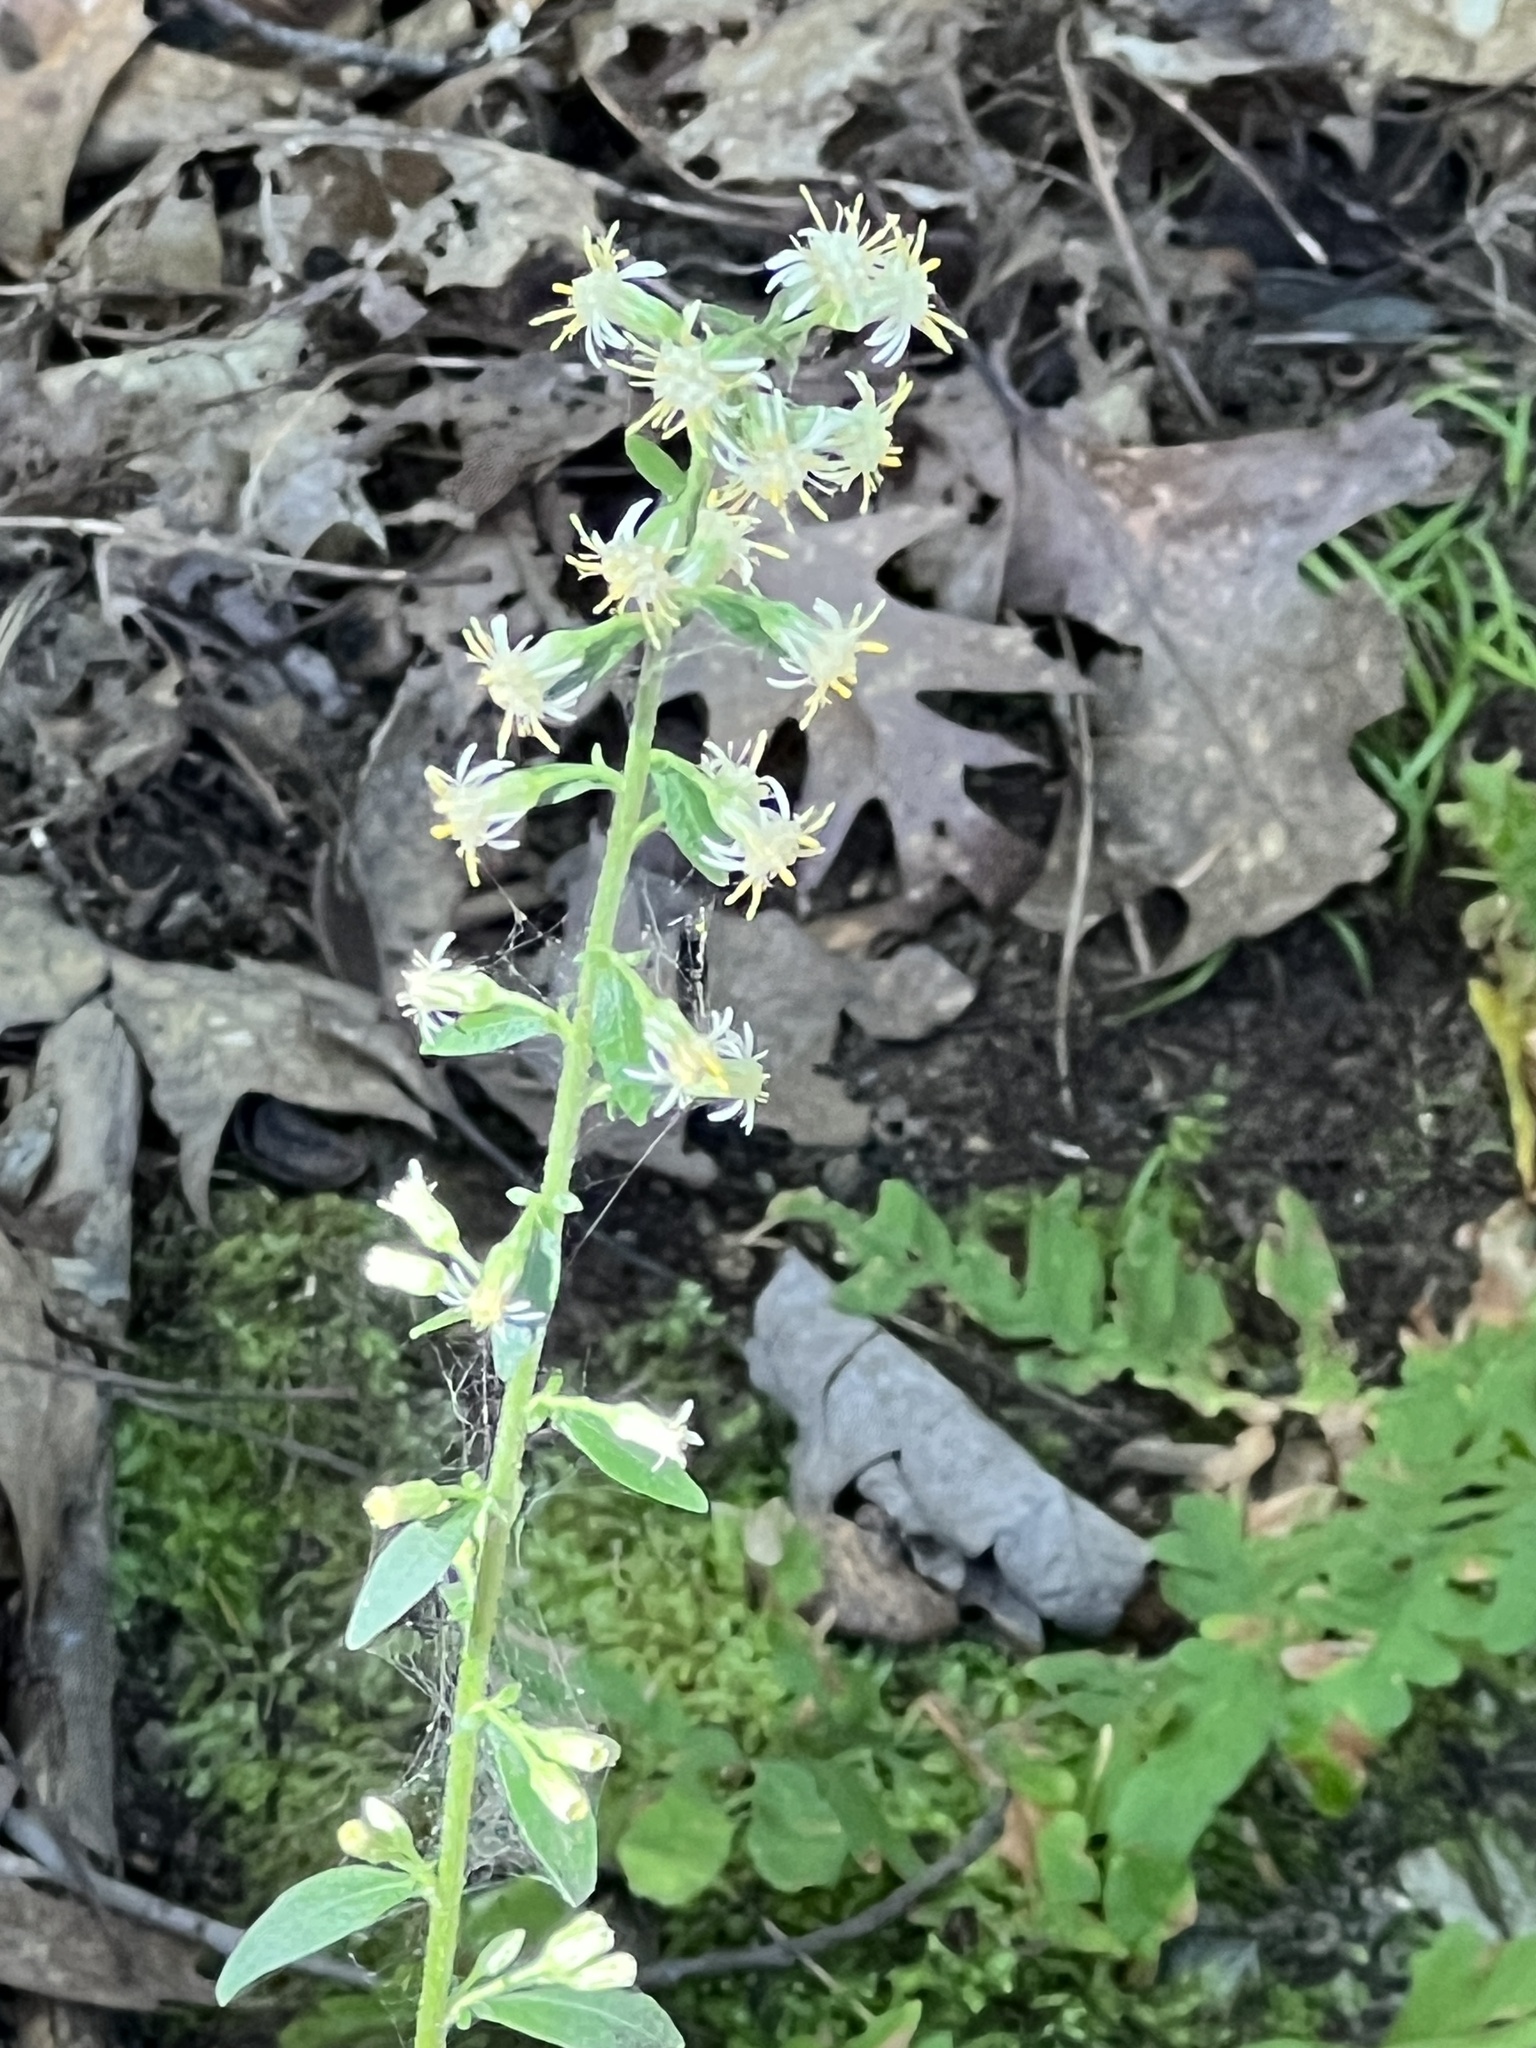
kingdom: Plantae
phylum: Tracheophyta
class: Magnoliopsida
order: Asterales
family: Asteraceae
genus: Solidago
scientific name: Solidago bicolor
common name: Silverrod
